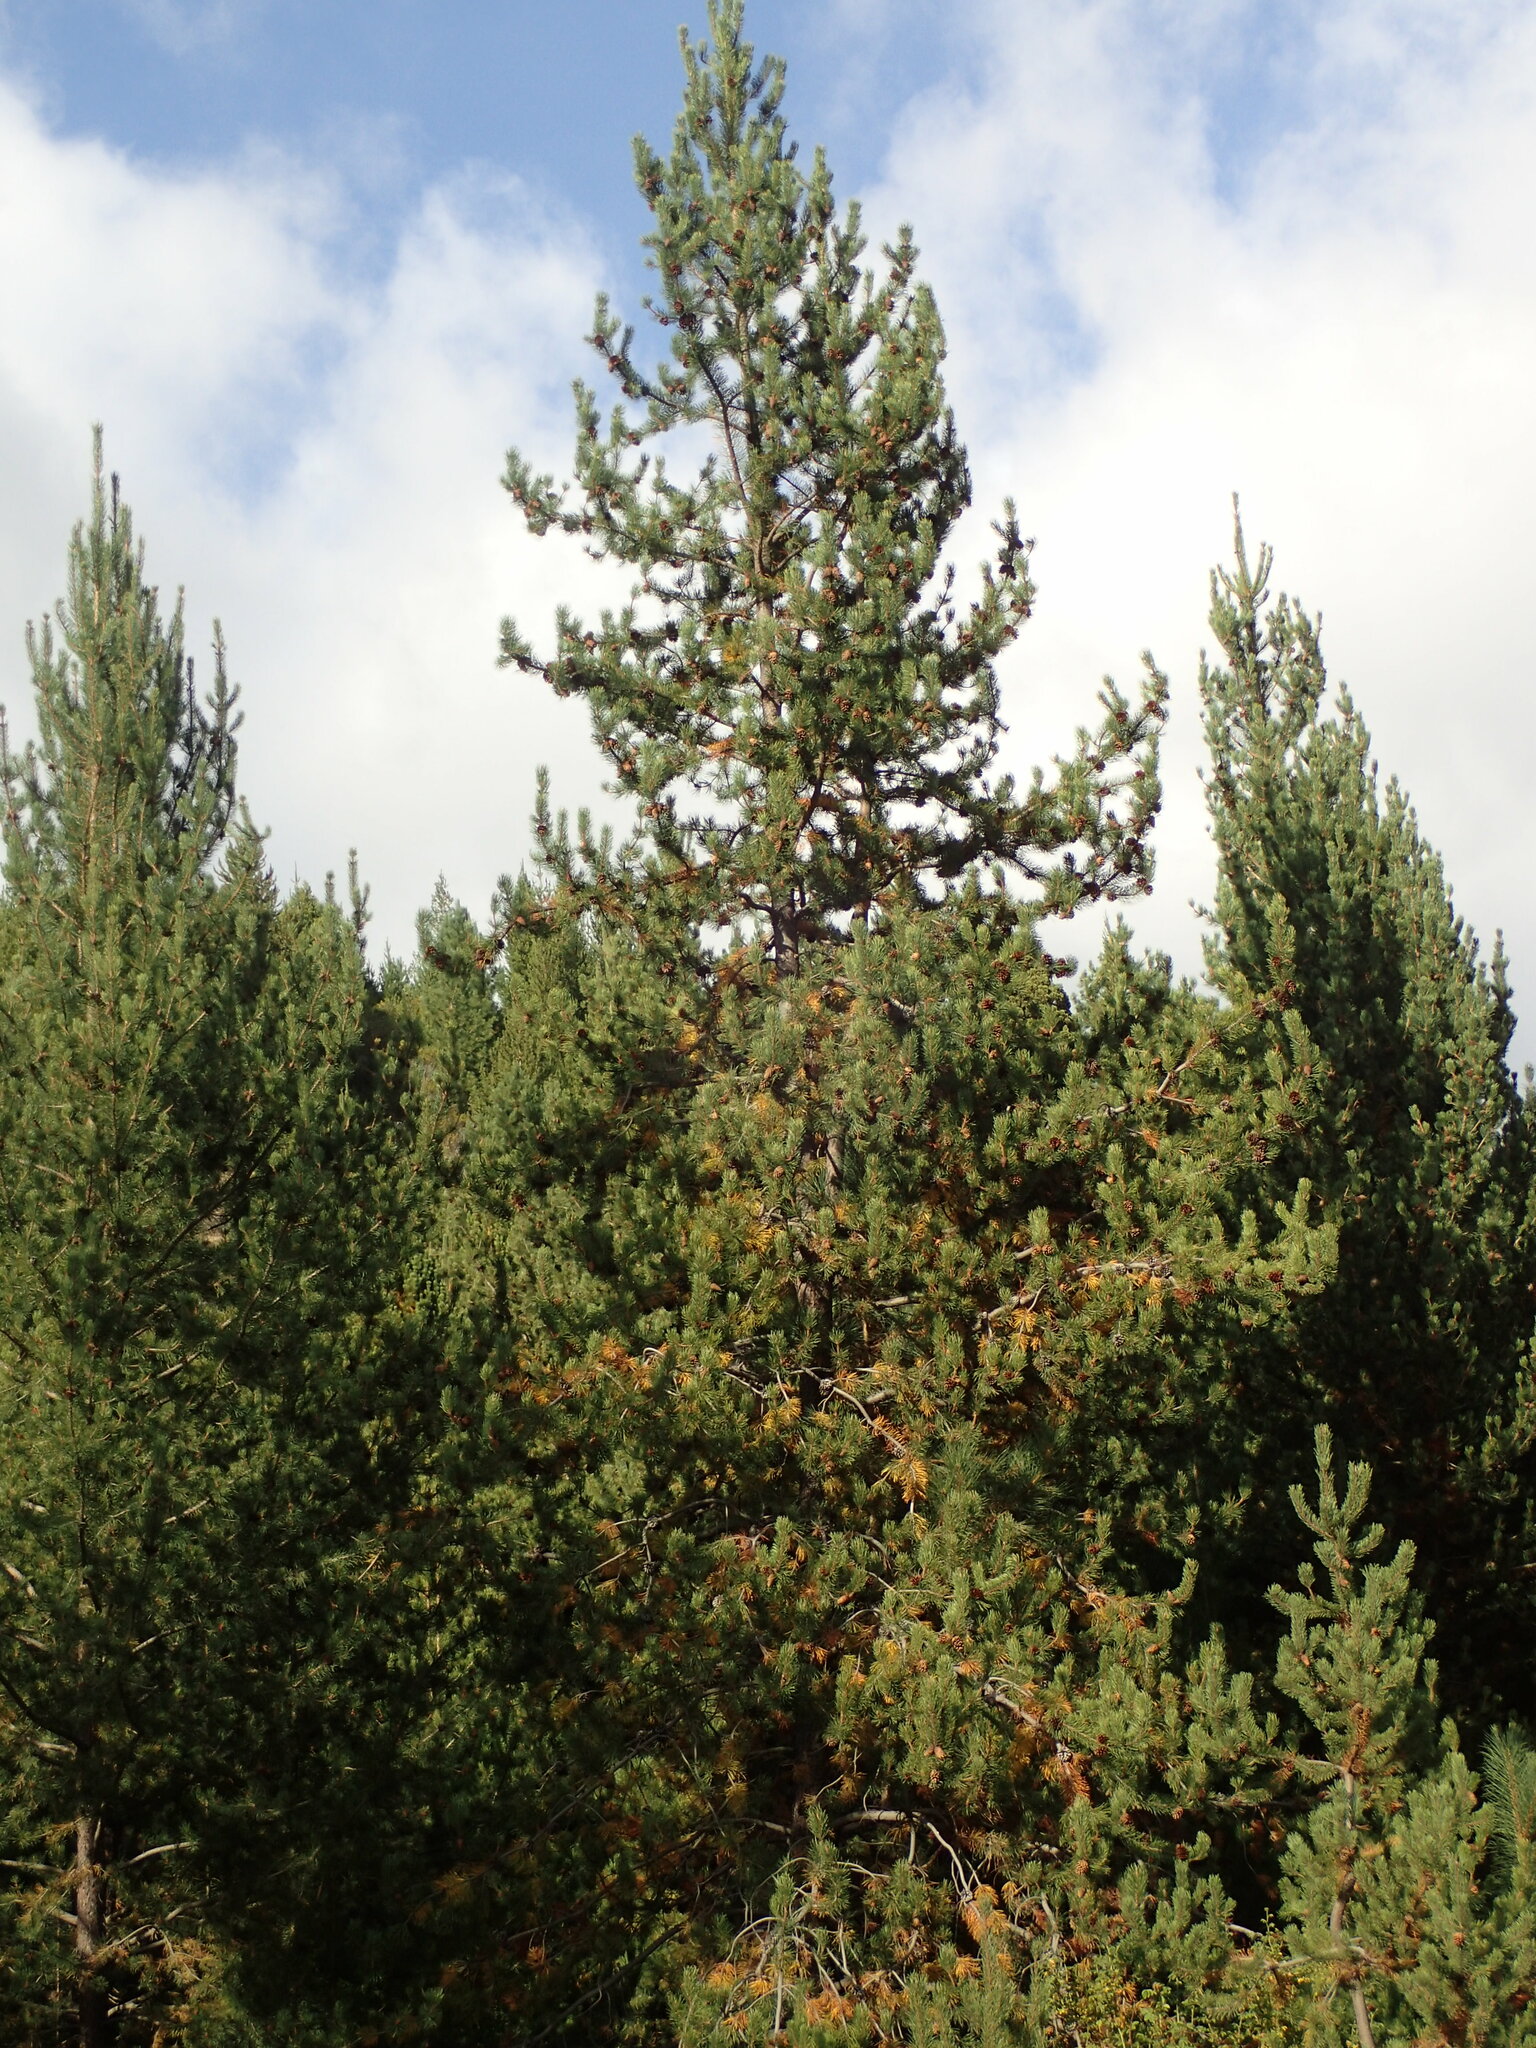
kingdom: Plantae
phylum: Tracheophyta
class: Pinopsida
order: Pinales
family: Pinaceae
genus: Pinus
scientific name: Pinus contorta
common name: Lodgepole pine
